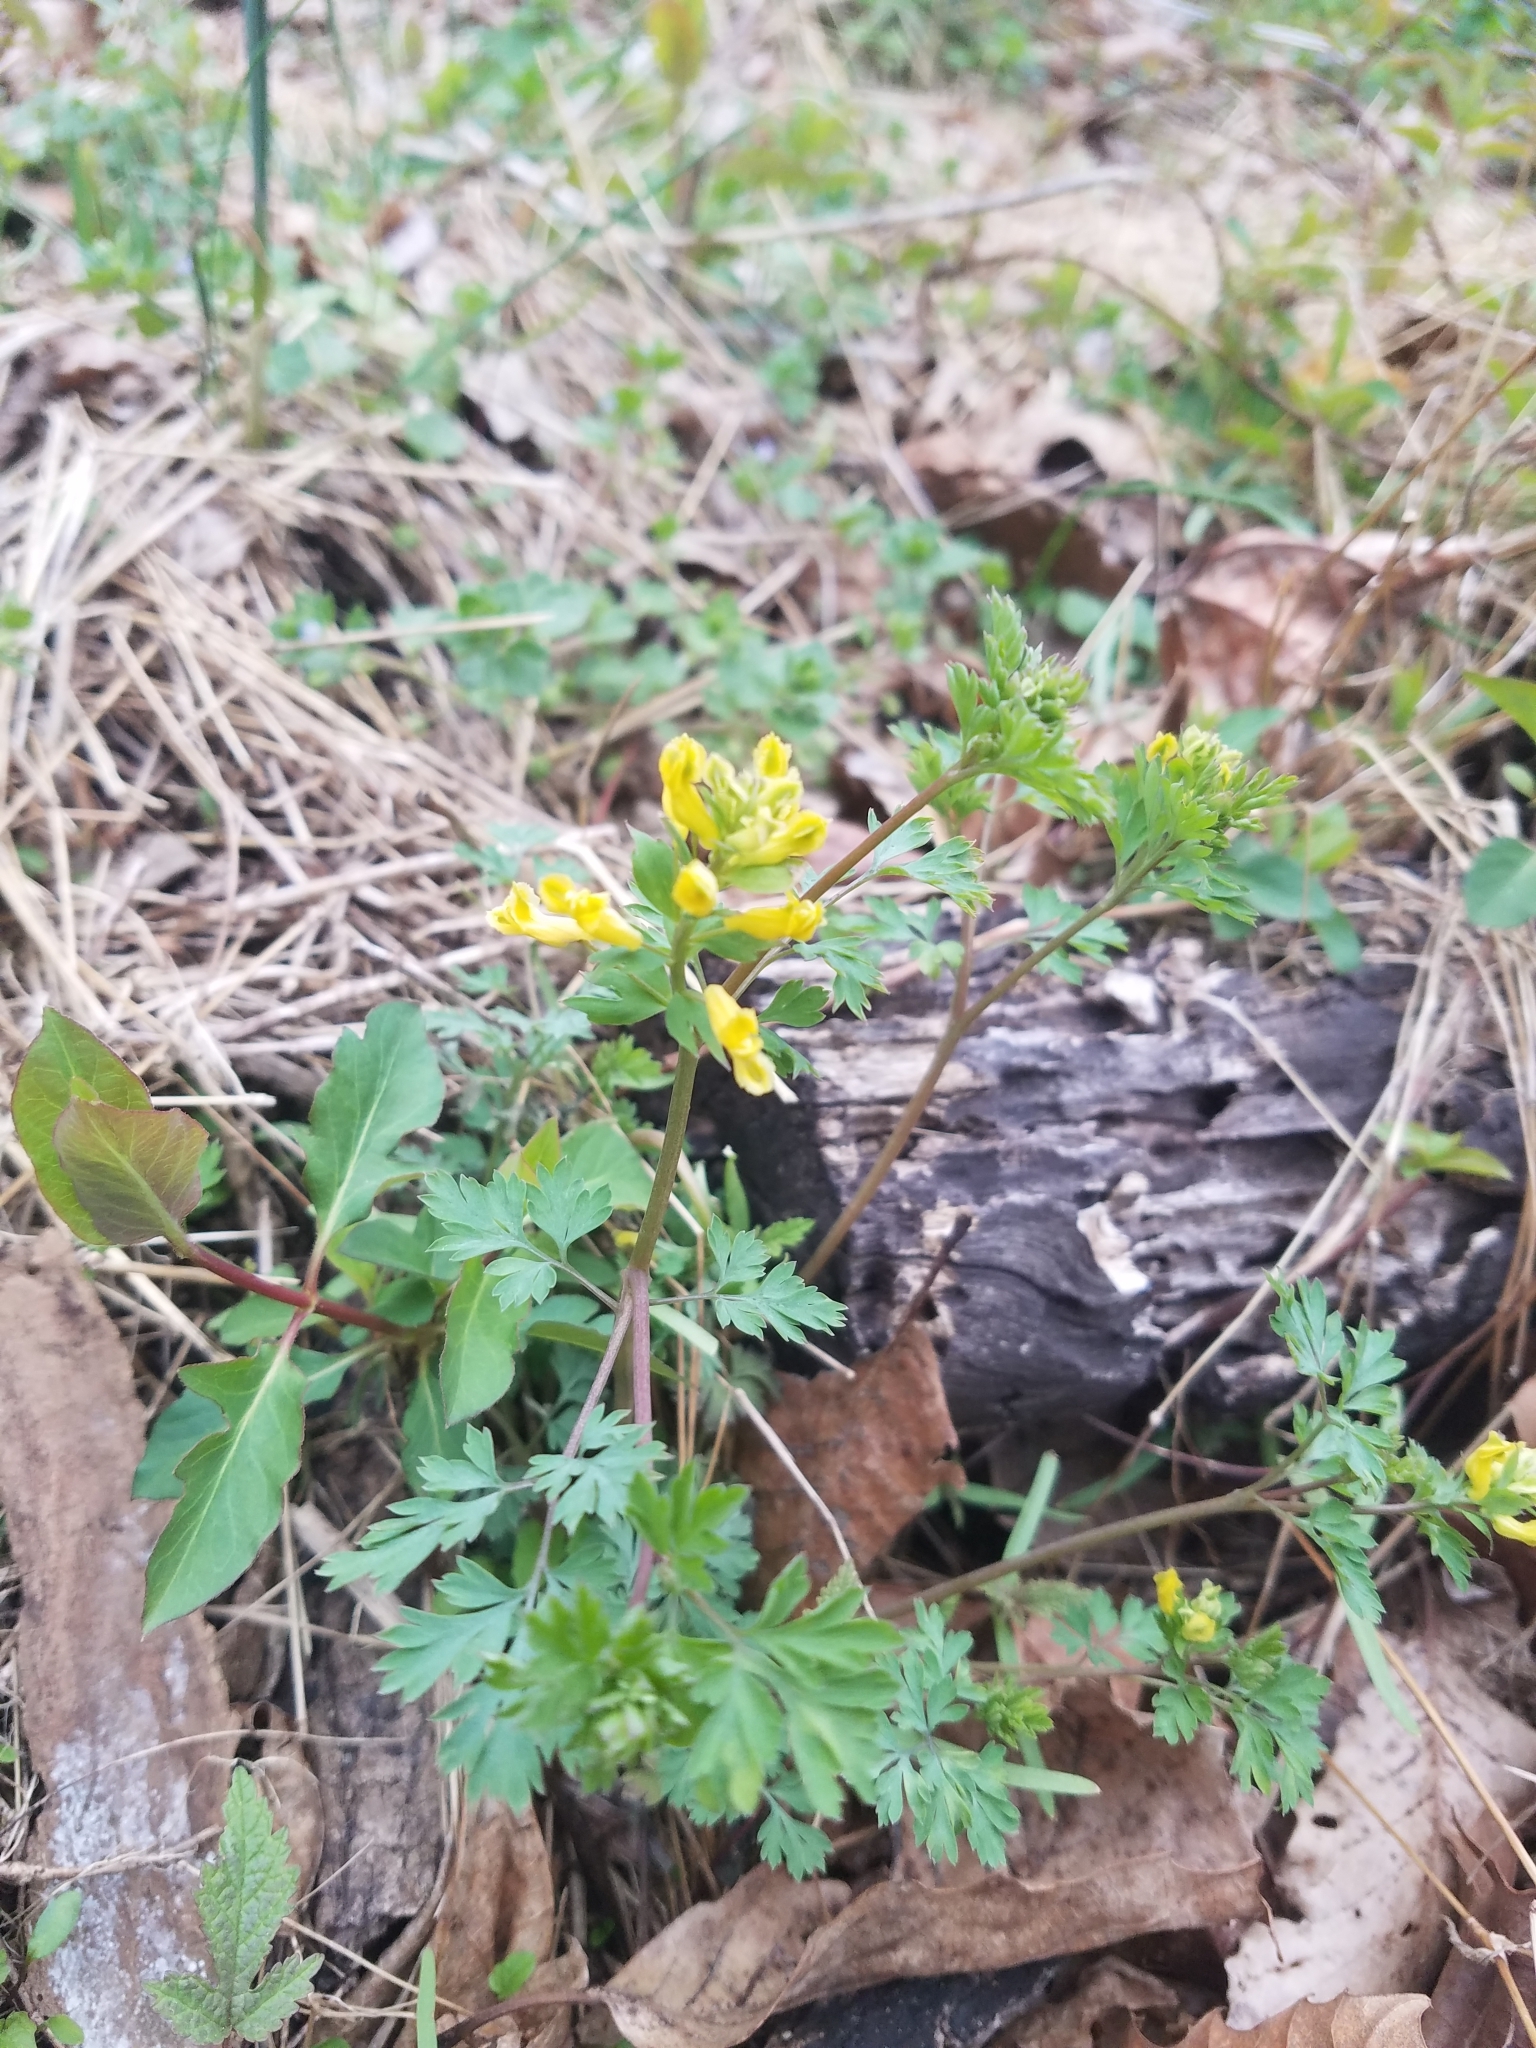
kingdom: Plantae
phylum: Tracheophyta
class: Magnoliopsida
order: Ranunculales
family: Papaveraceae
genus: Corydalis
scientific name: Corydalis flavula
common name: Yellow corydalis
